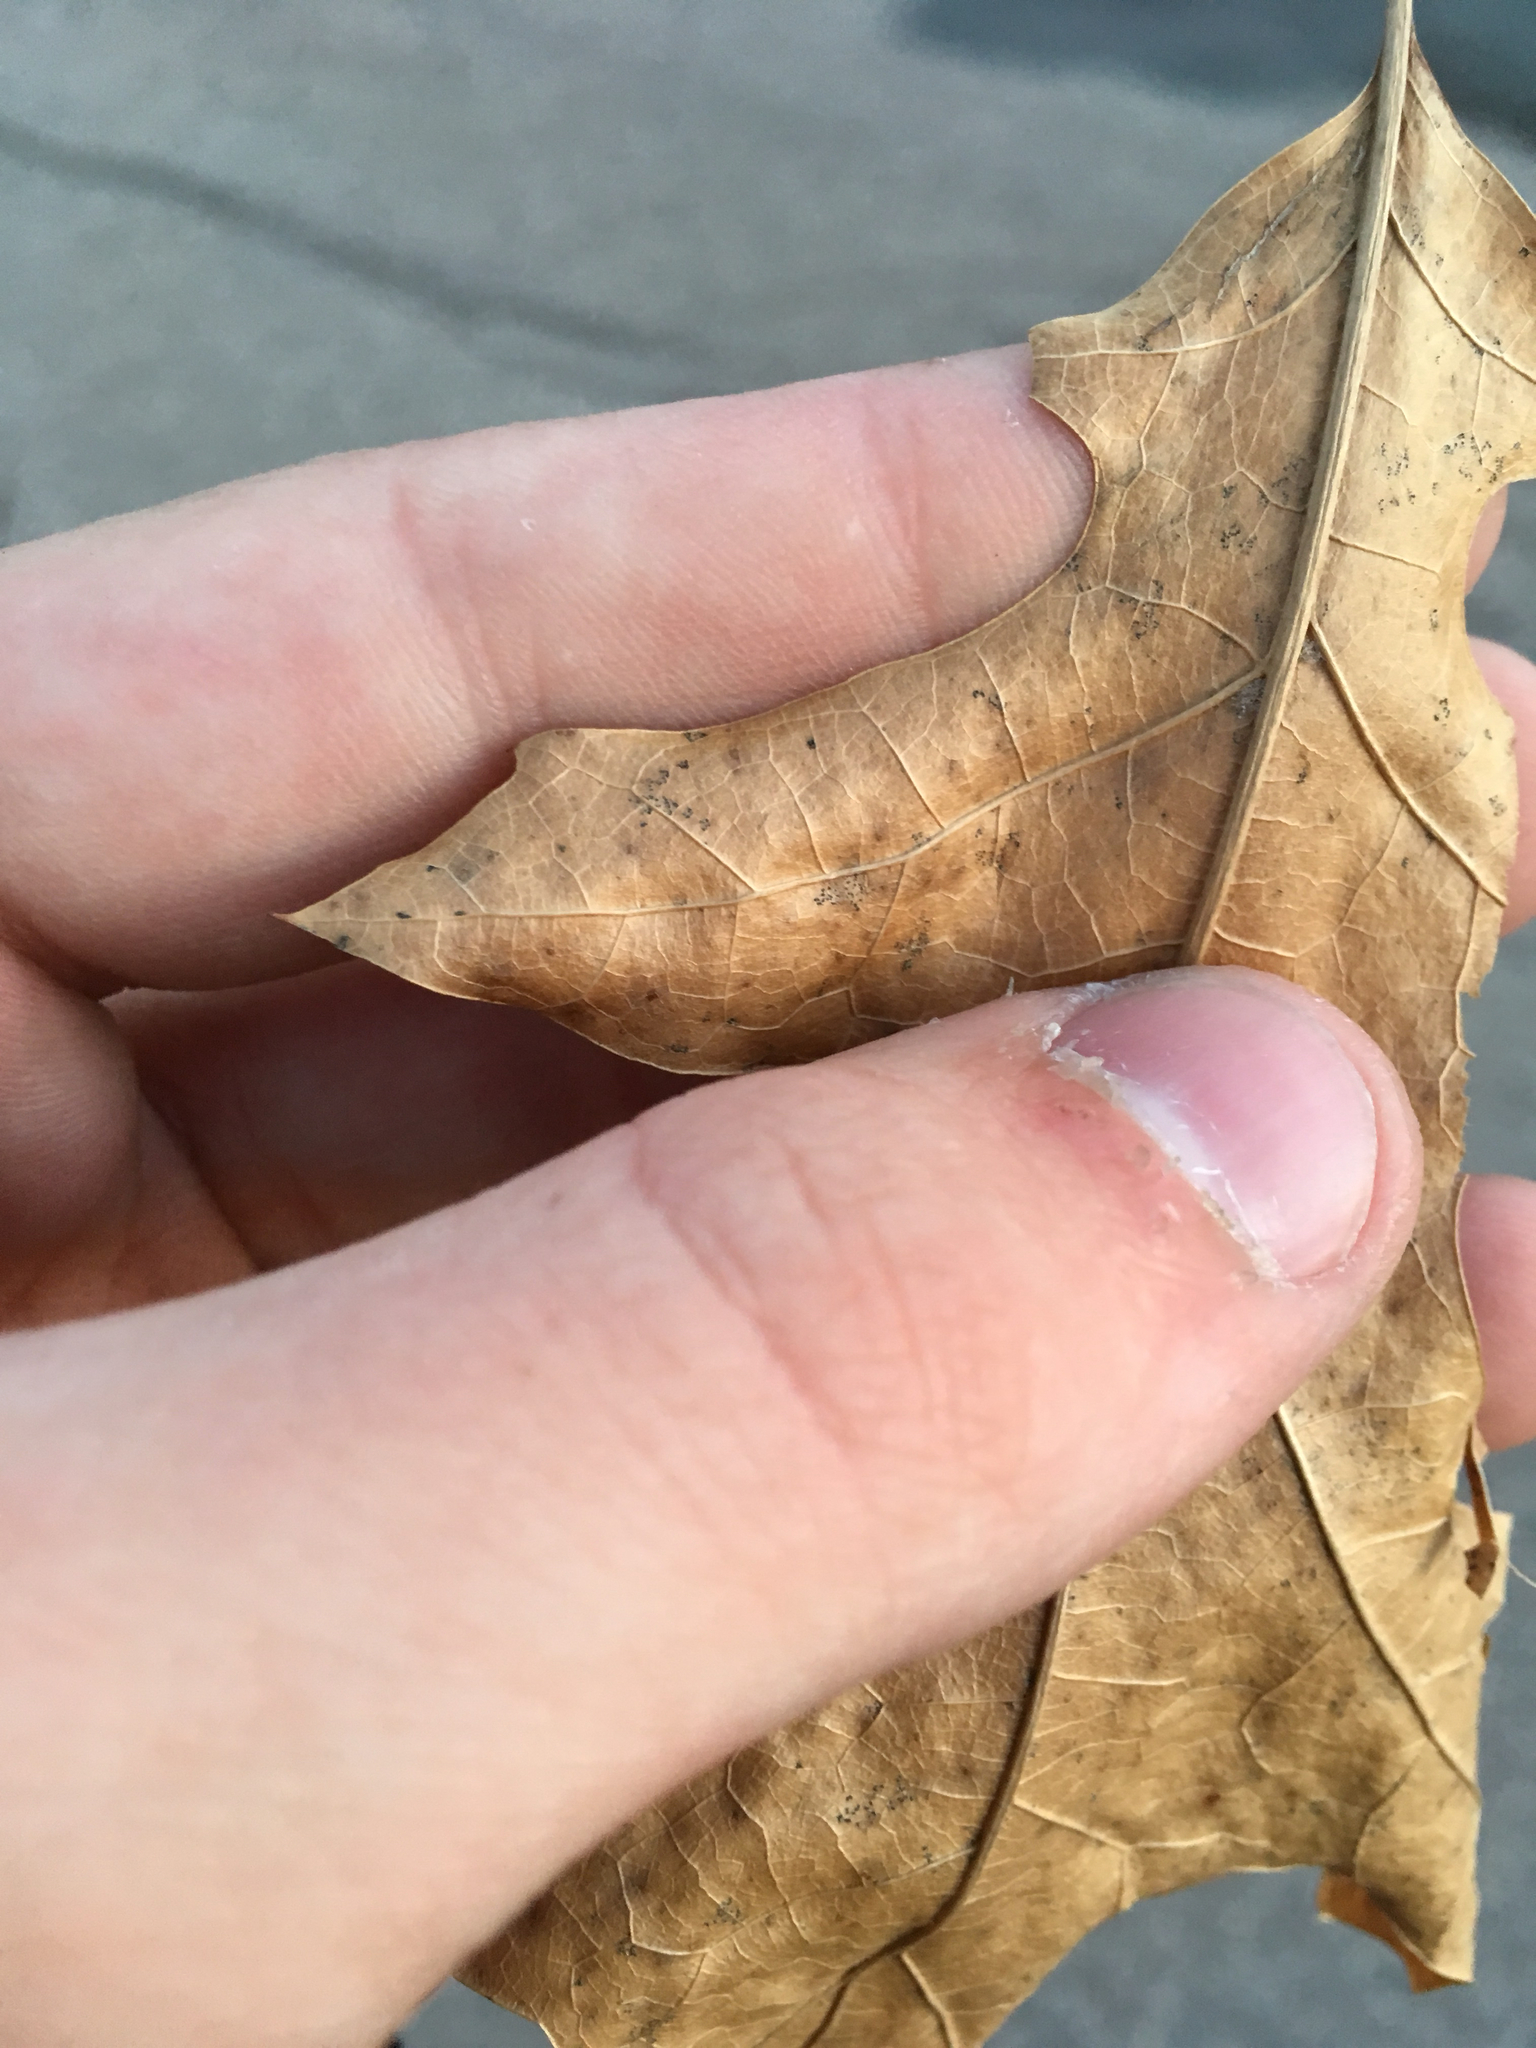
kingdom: Plantae
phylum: Tracheophyta
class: Magnoliopsida
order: Fagales
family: Fagaceae
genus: Quercus
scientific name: Quercus rubra
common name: Red oak
